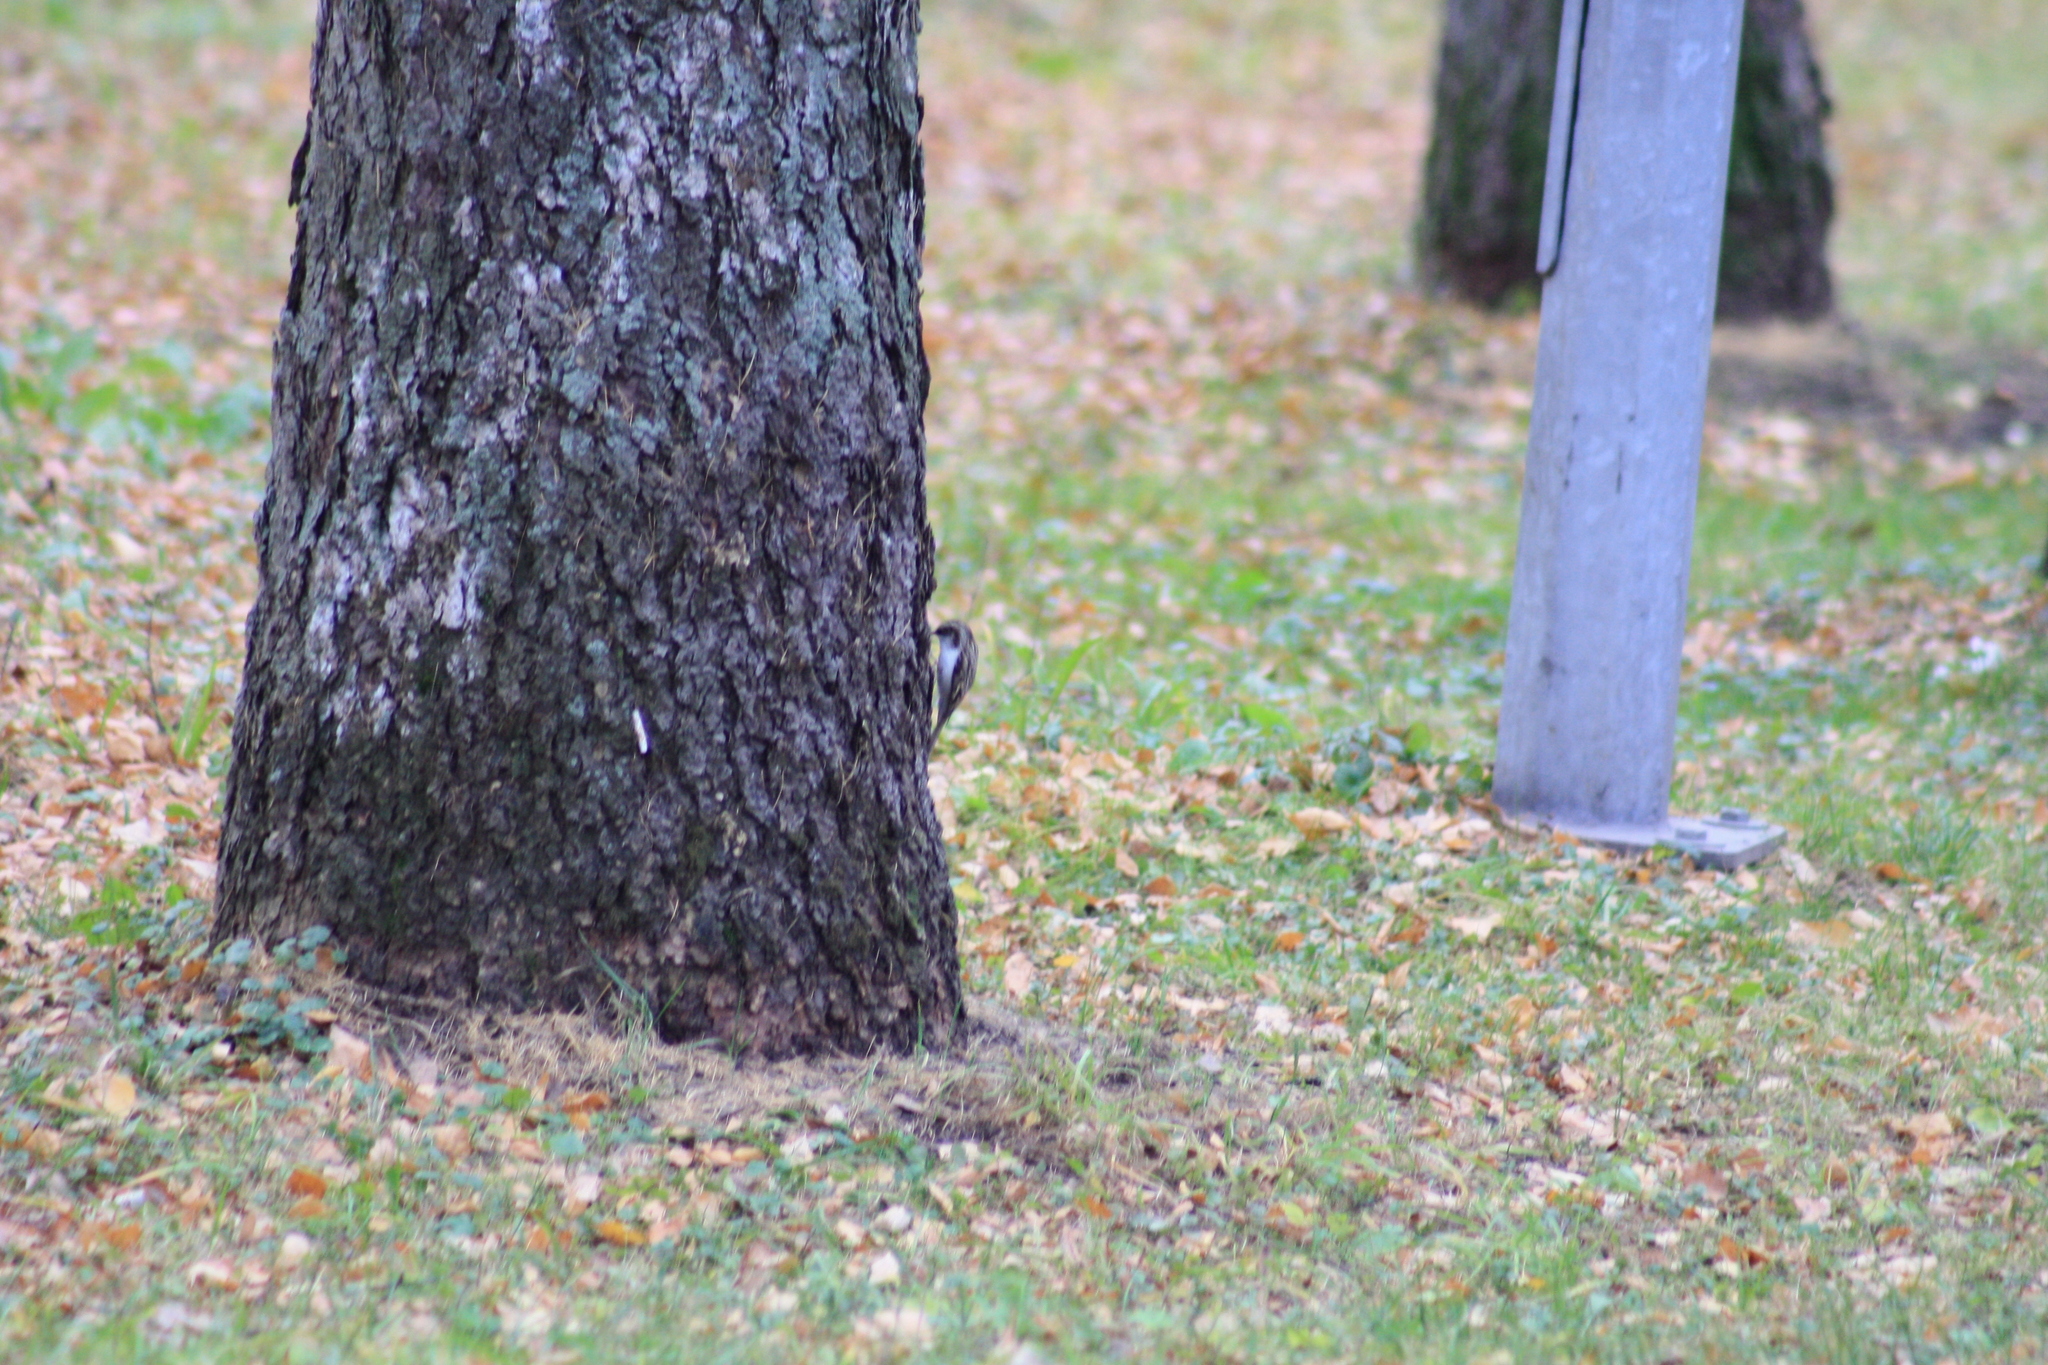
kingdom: Animalia
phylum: Chordata
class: Aves
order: Passeriformes
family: Certhiidae
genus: Certhia
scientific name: Certhia familiaris
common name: Eurasian treecreeper
